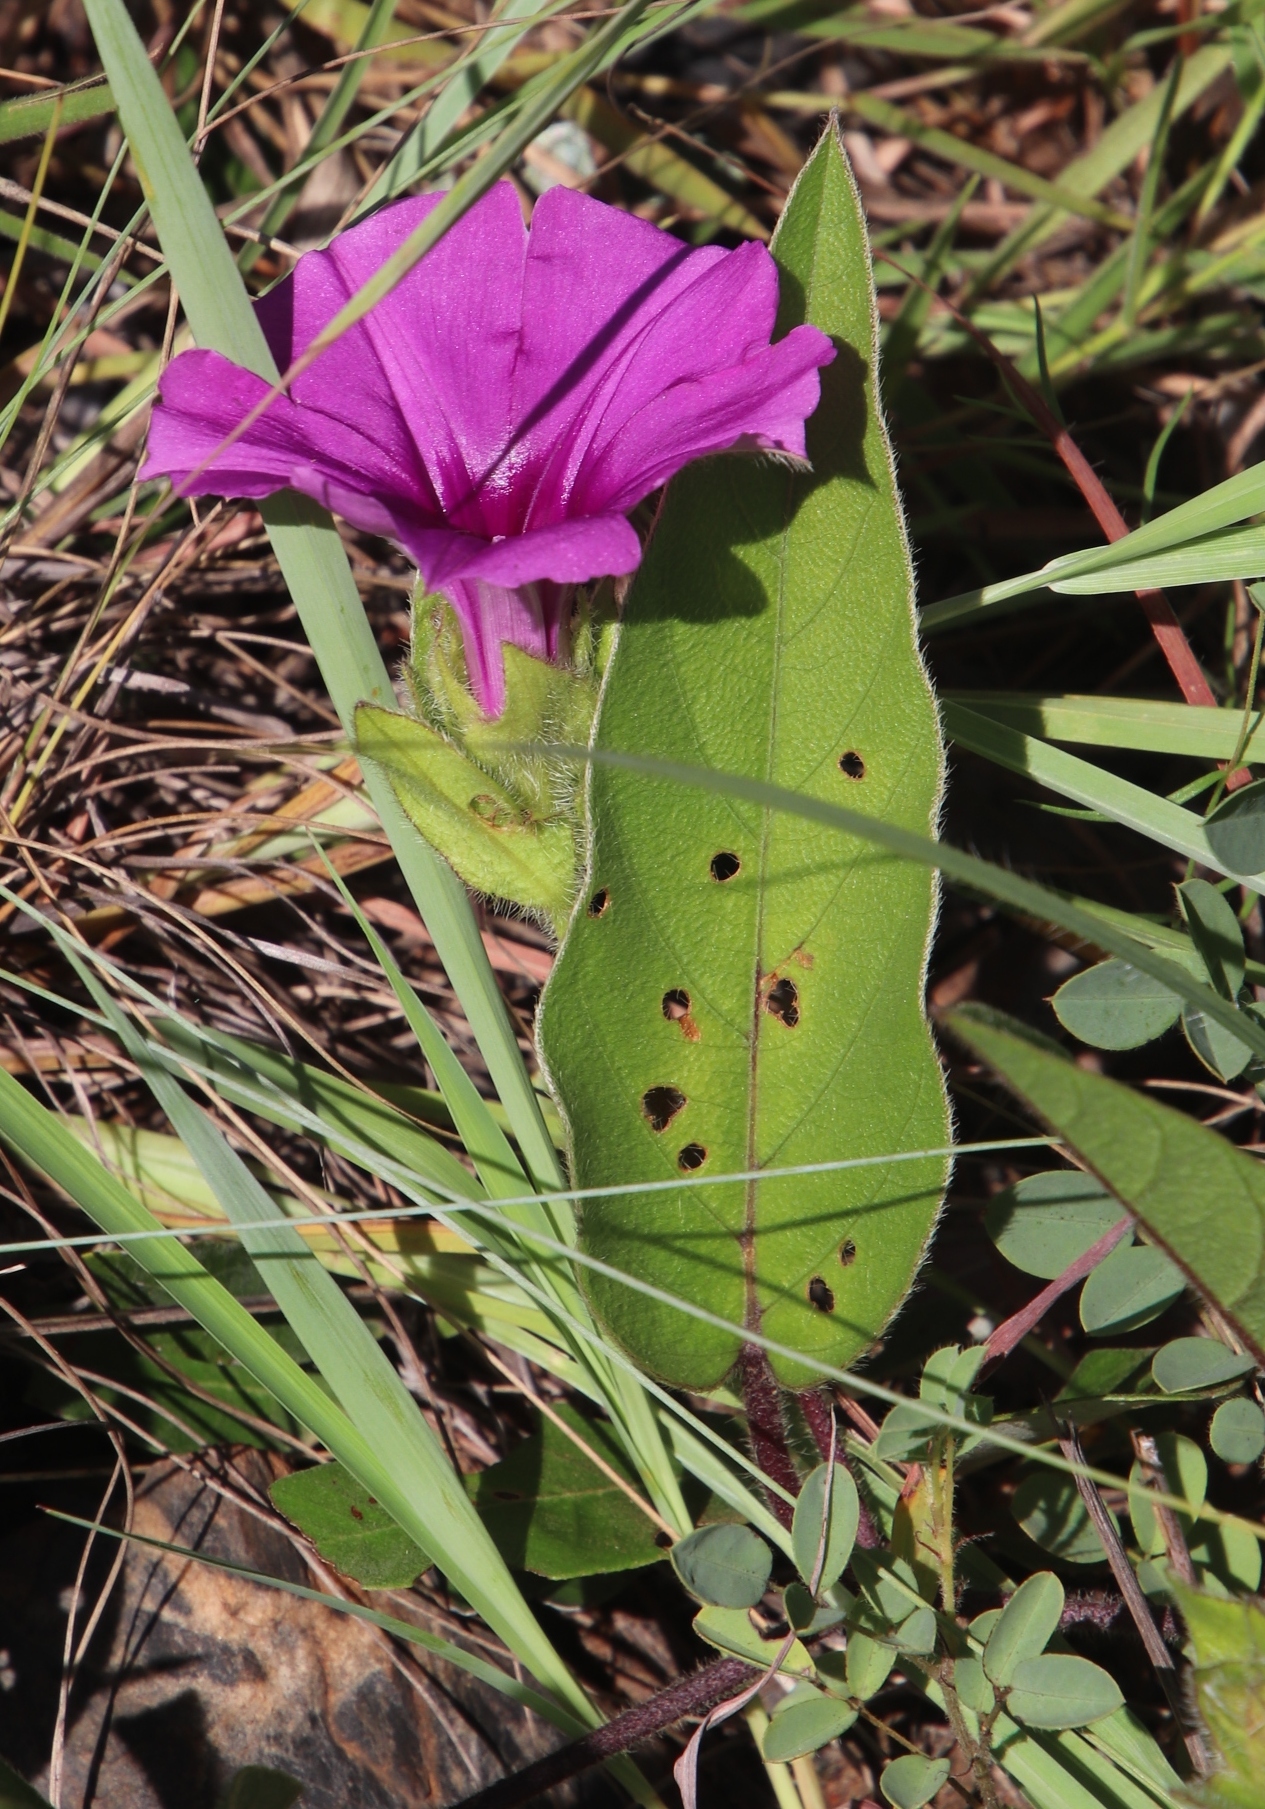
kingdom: Plantae
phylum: Tracheophyta
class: Magnoliopsida
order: Solanales
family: Convolvulaceae
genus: Ipomoea
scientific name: Ipomoea oblongata
